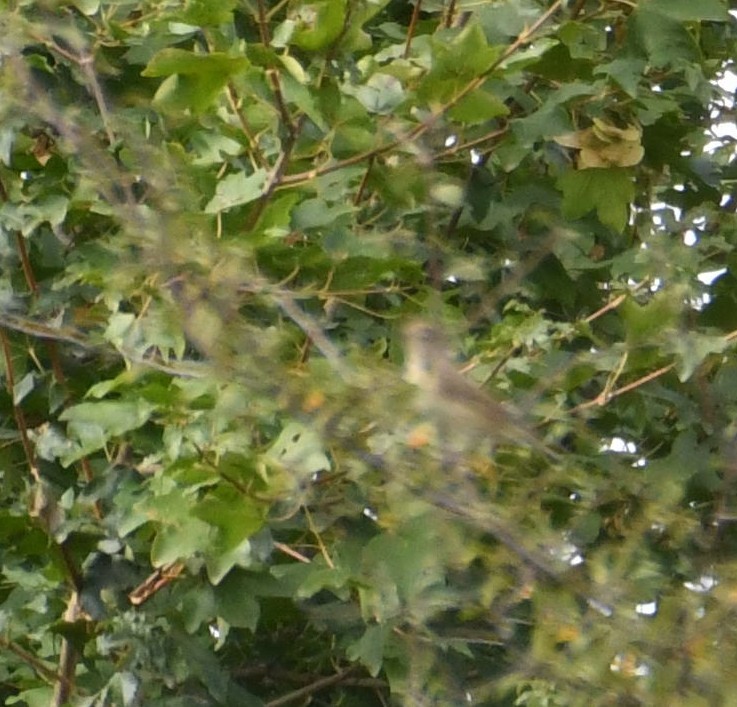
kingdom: Animalia
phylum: Chordata
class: Aves
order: Passeriformes
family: Sylviidae
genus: Sylvia
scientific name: Sylvia borin
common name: Garden warbler
